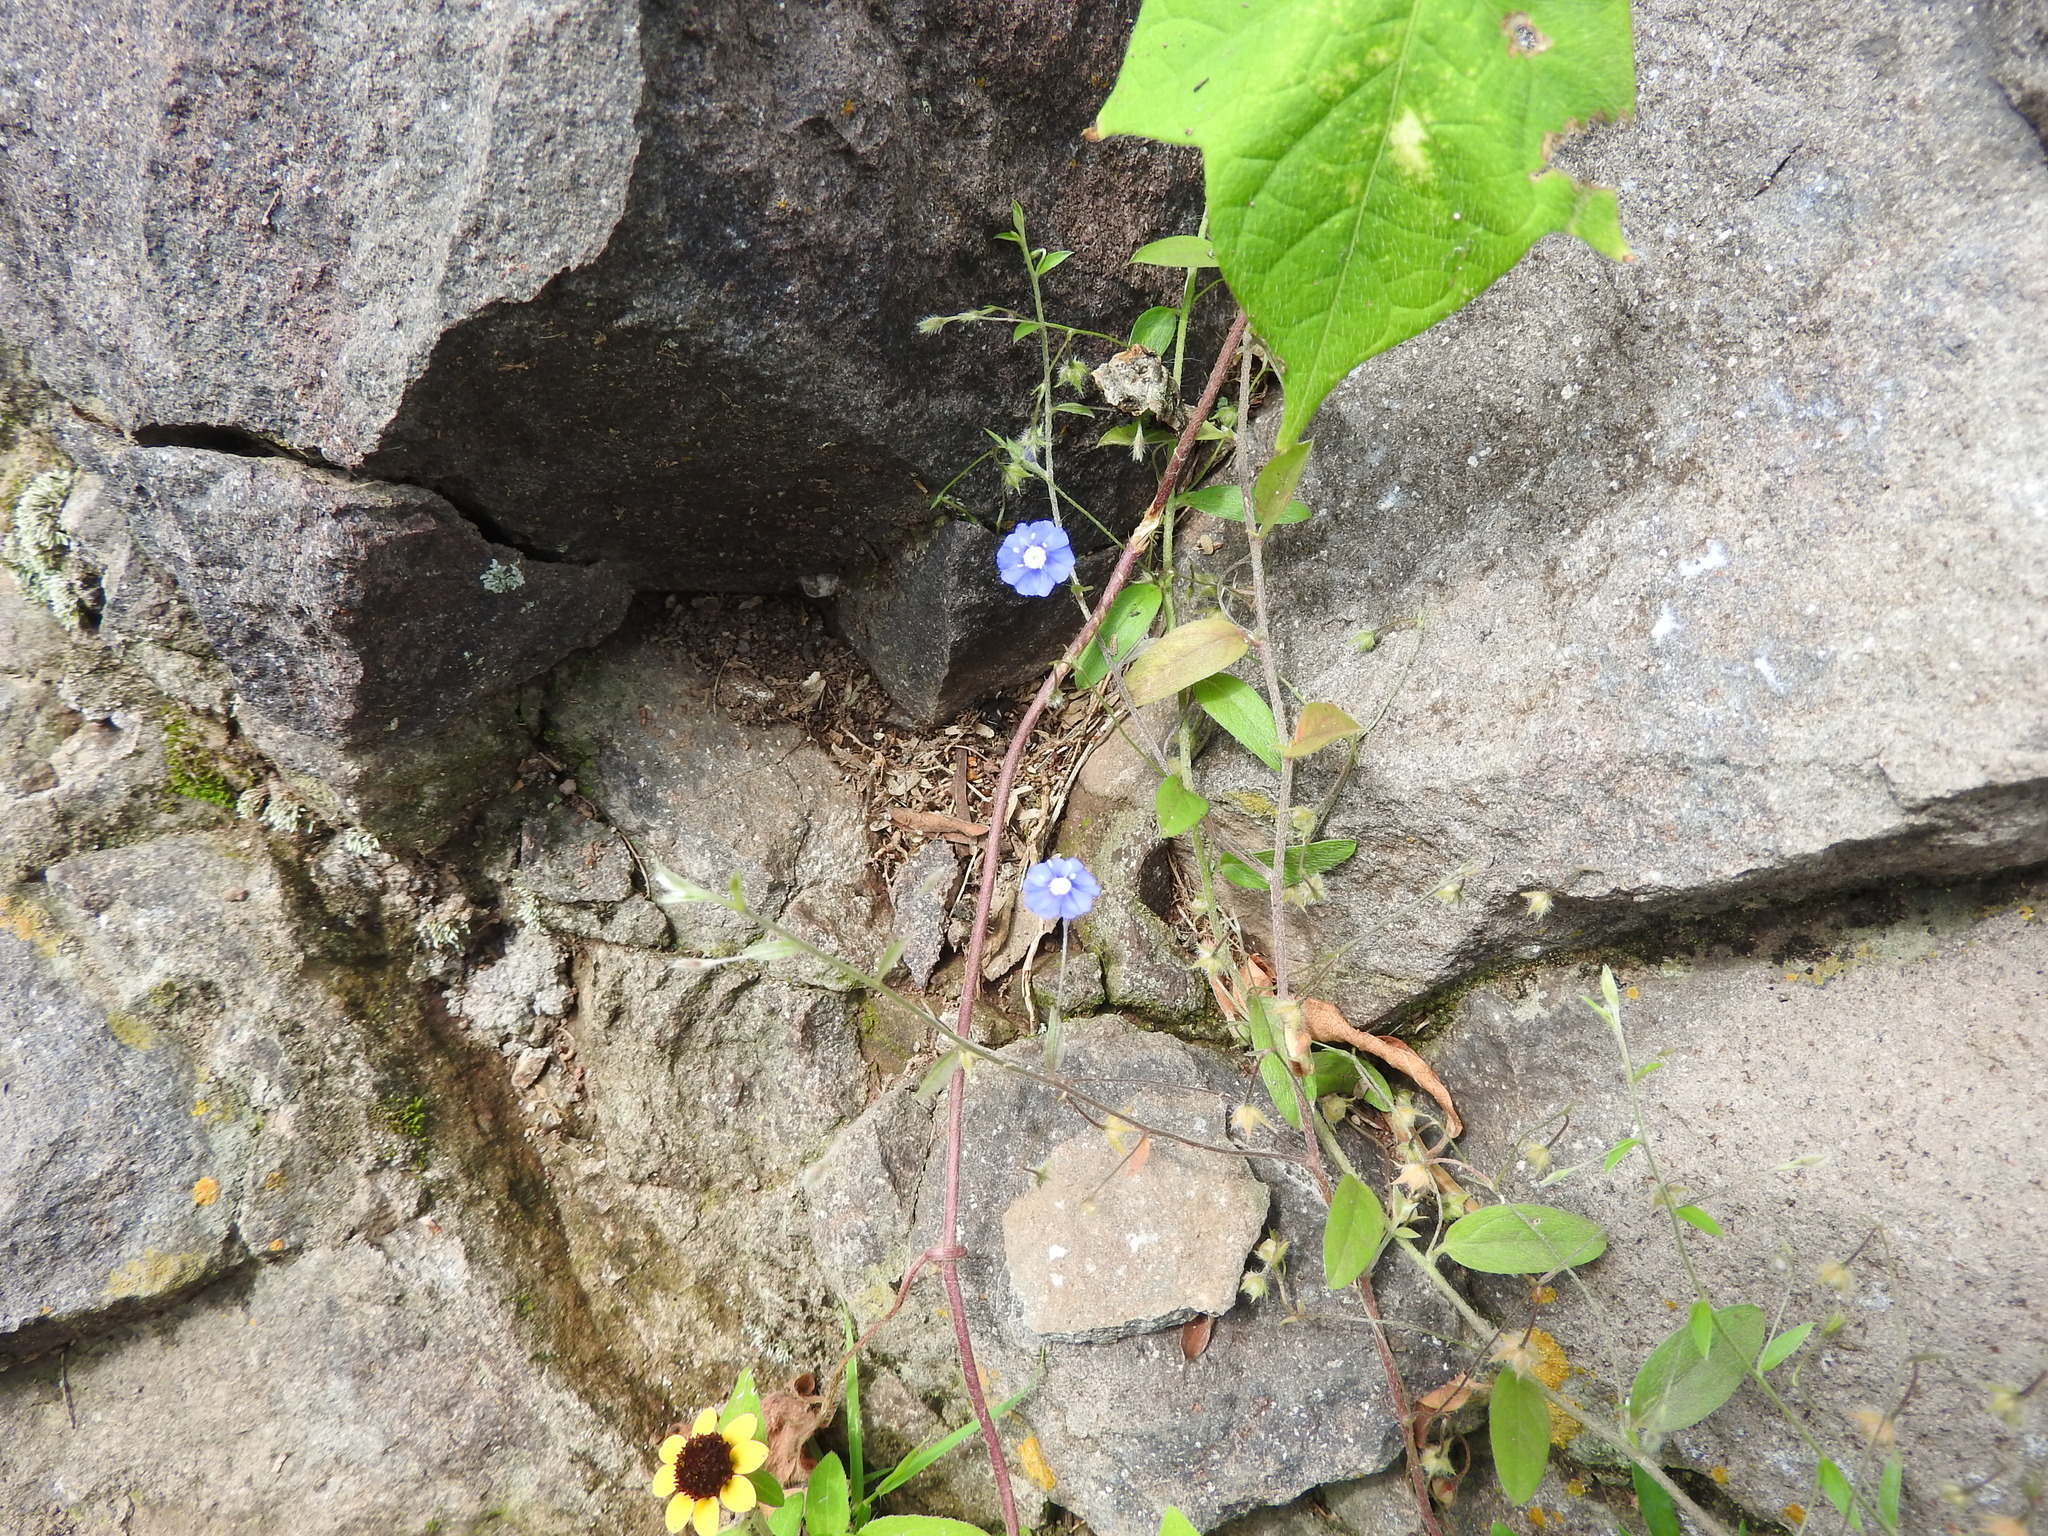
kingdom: Plantae
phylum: Tracheophyta
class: Magnoliopsida
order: Solanales
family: Convolvulaceae
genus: Evolvulus
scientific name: Evolvulus alsinoides
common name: Slender dwarf morning-glory
